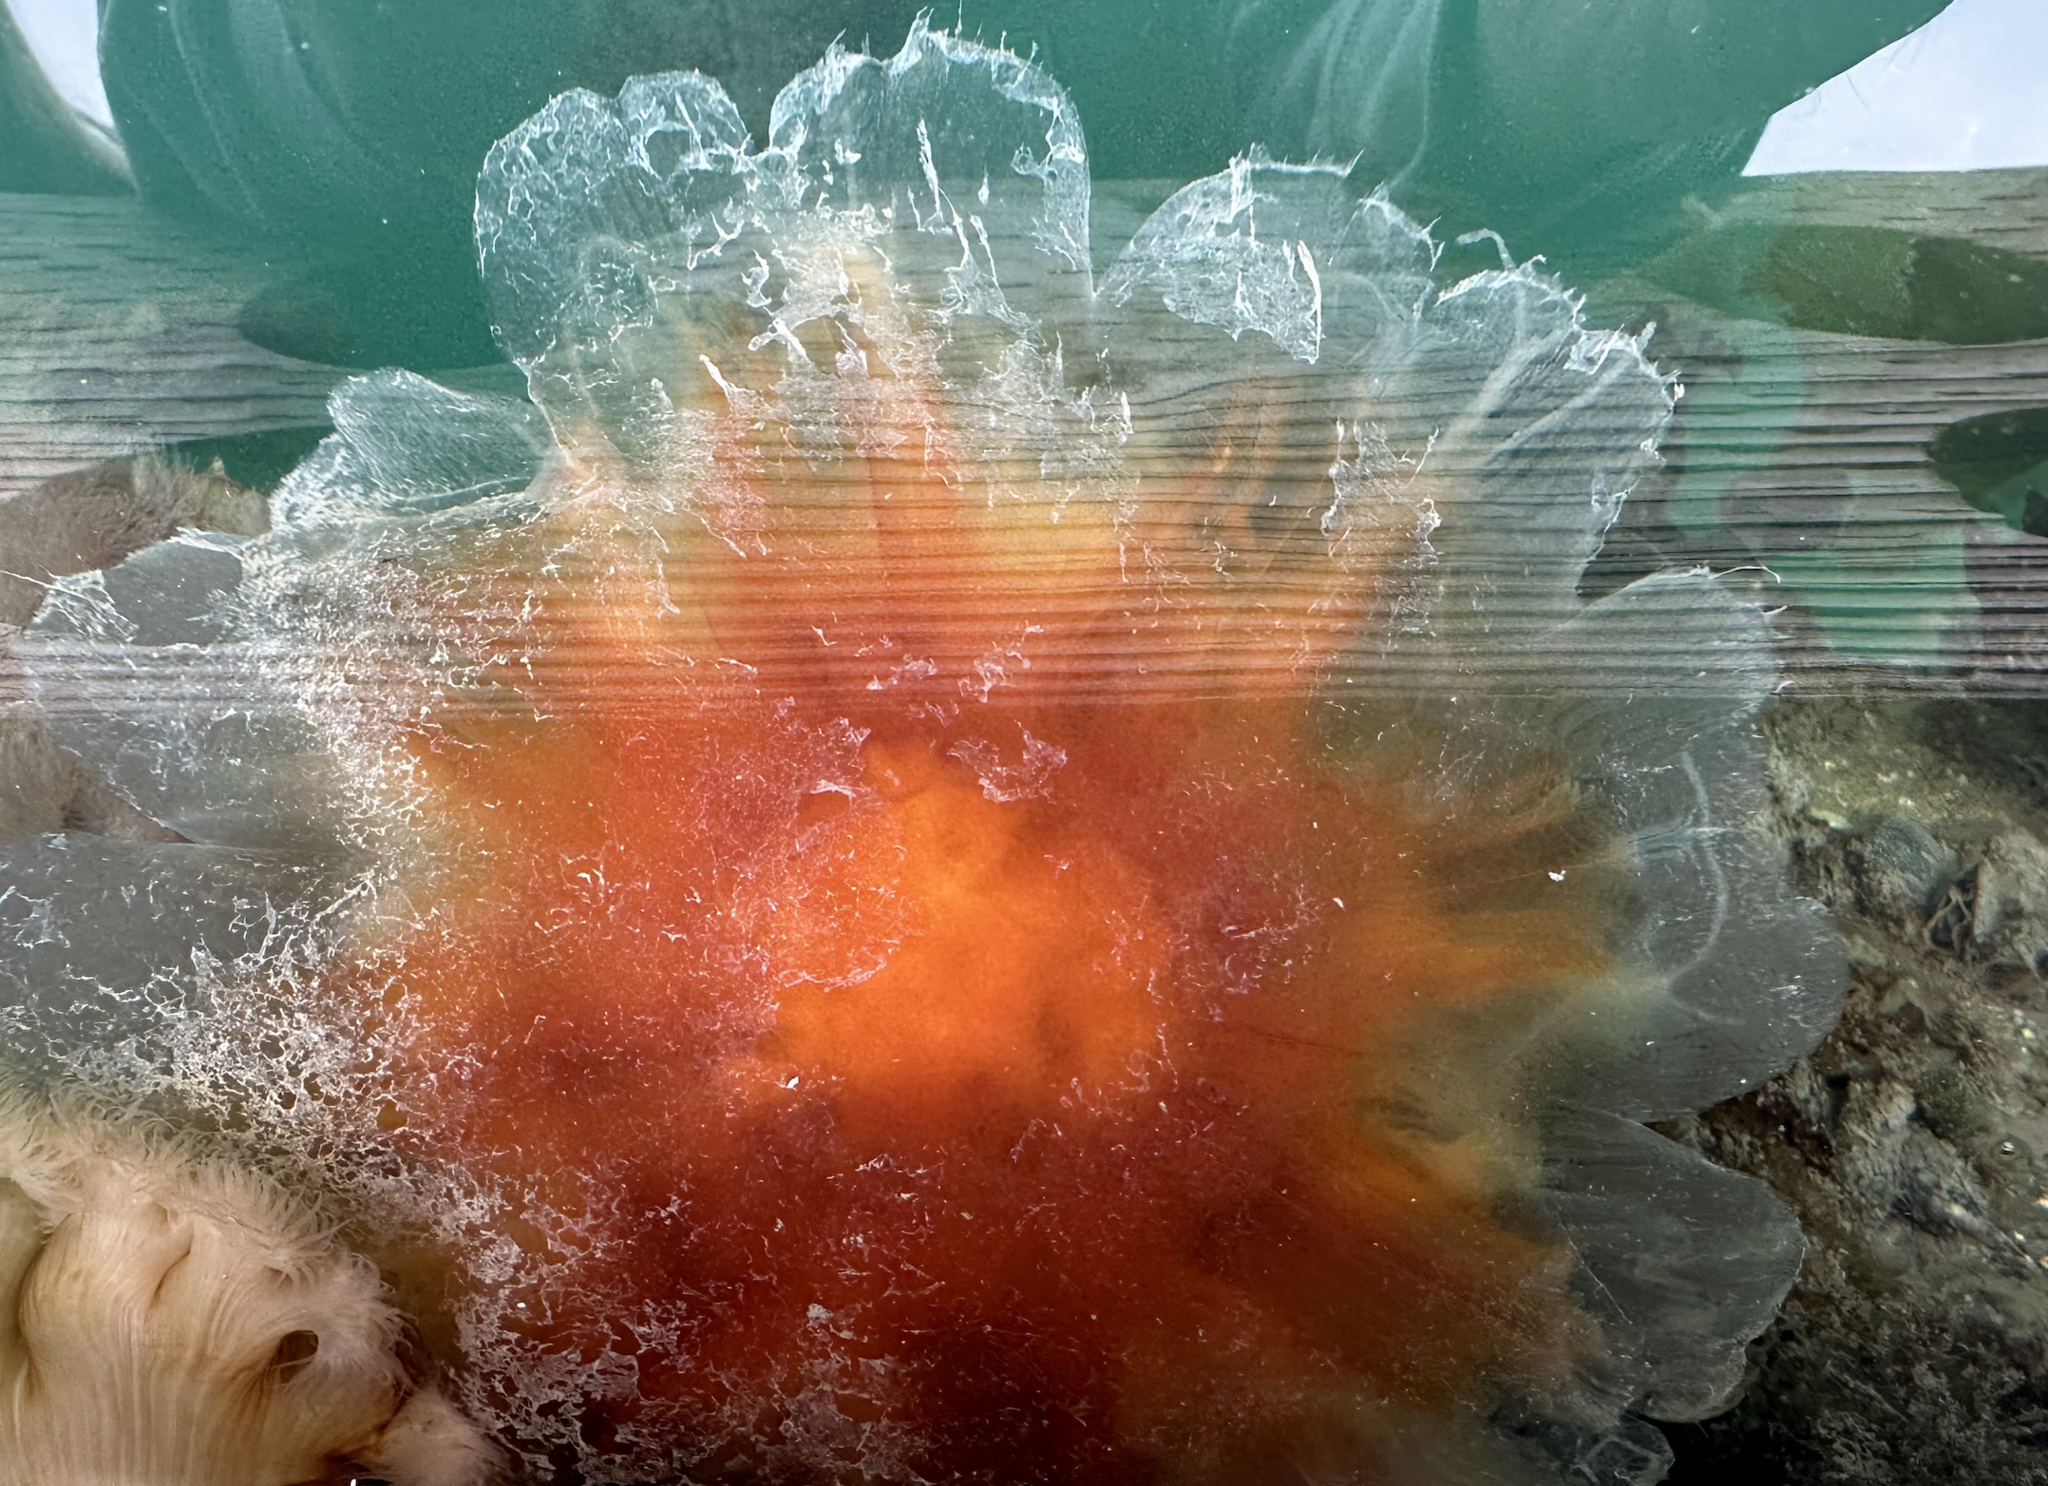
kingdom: Animalia
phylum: Cnidaria
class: Scyphozoa
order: Semaeostomeae
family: Cyaneidae
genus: Cyanea
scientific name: Cyanea ferruginea
